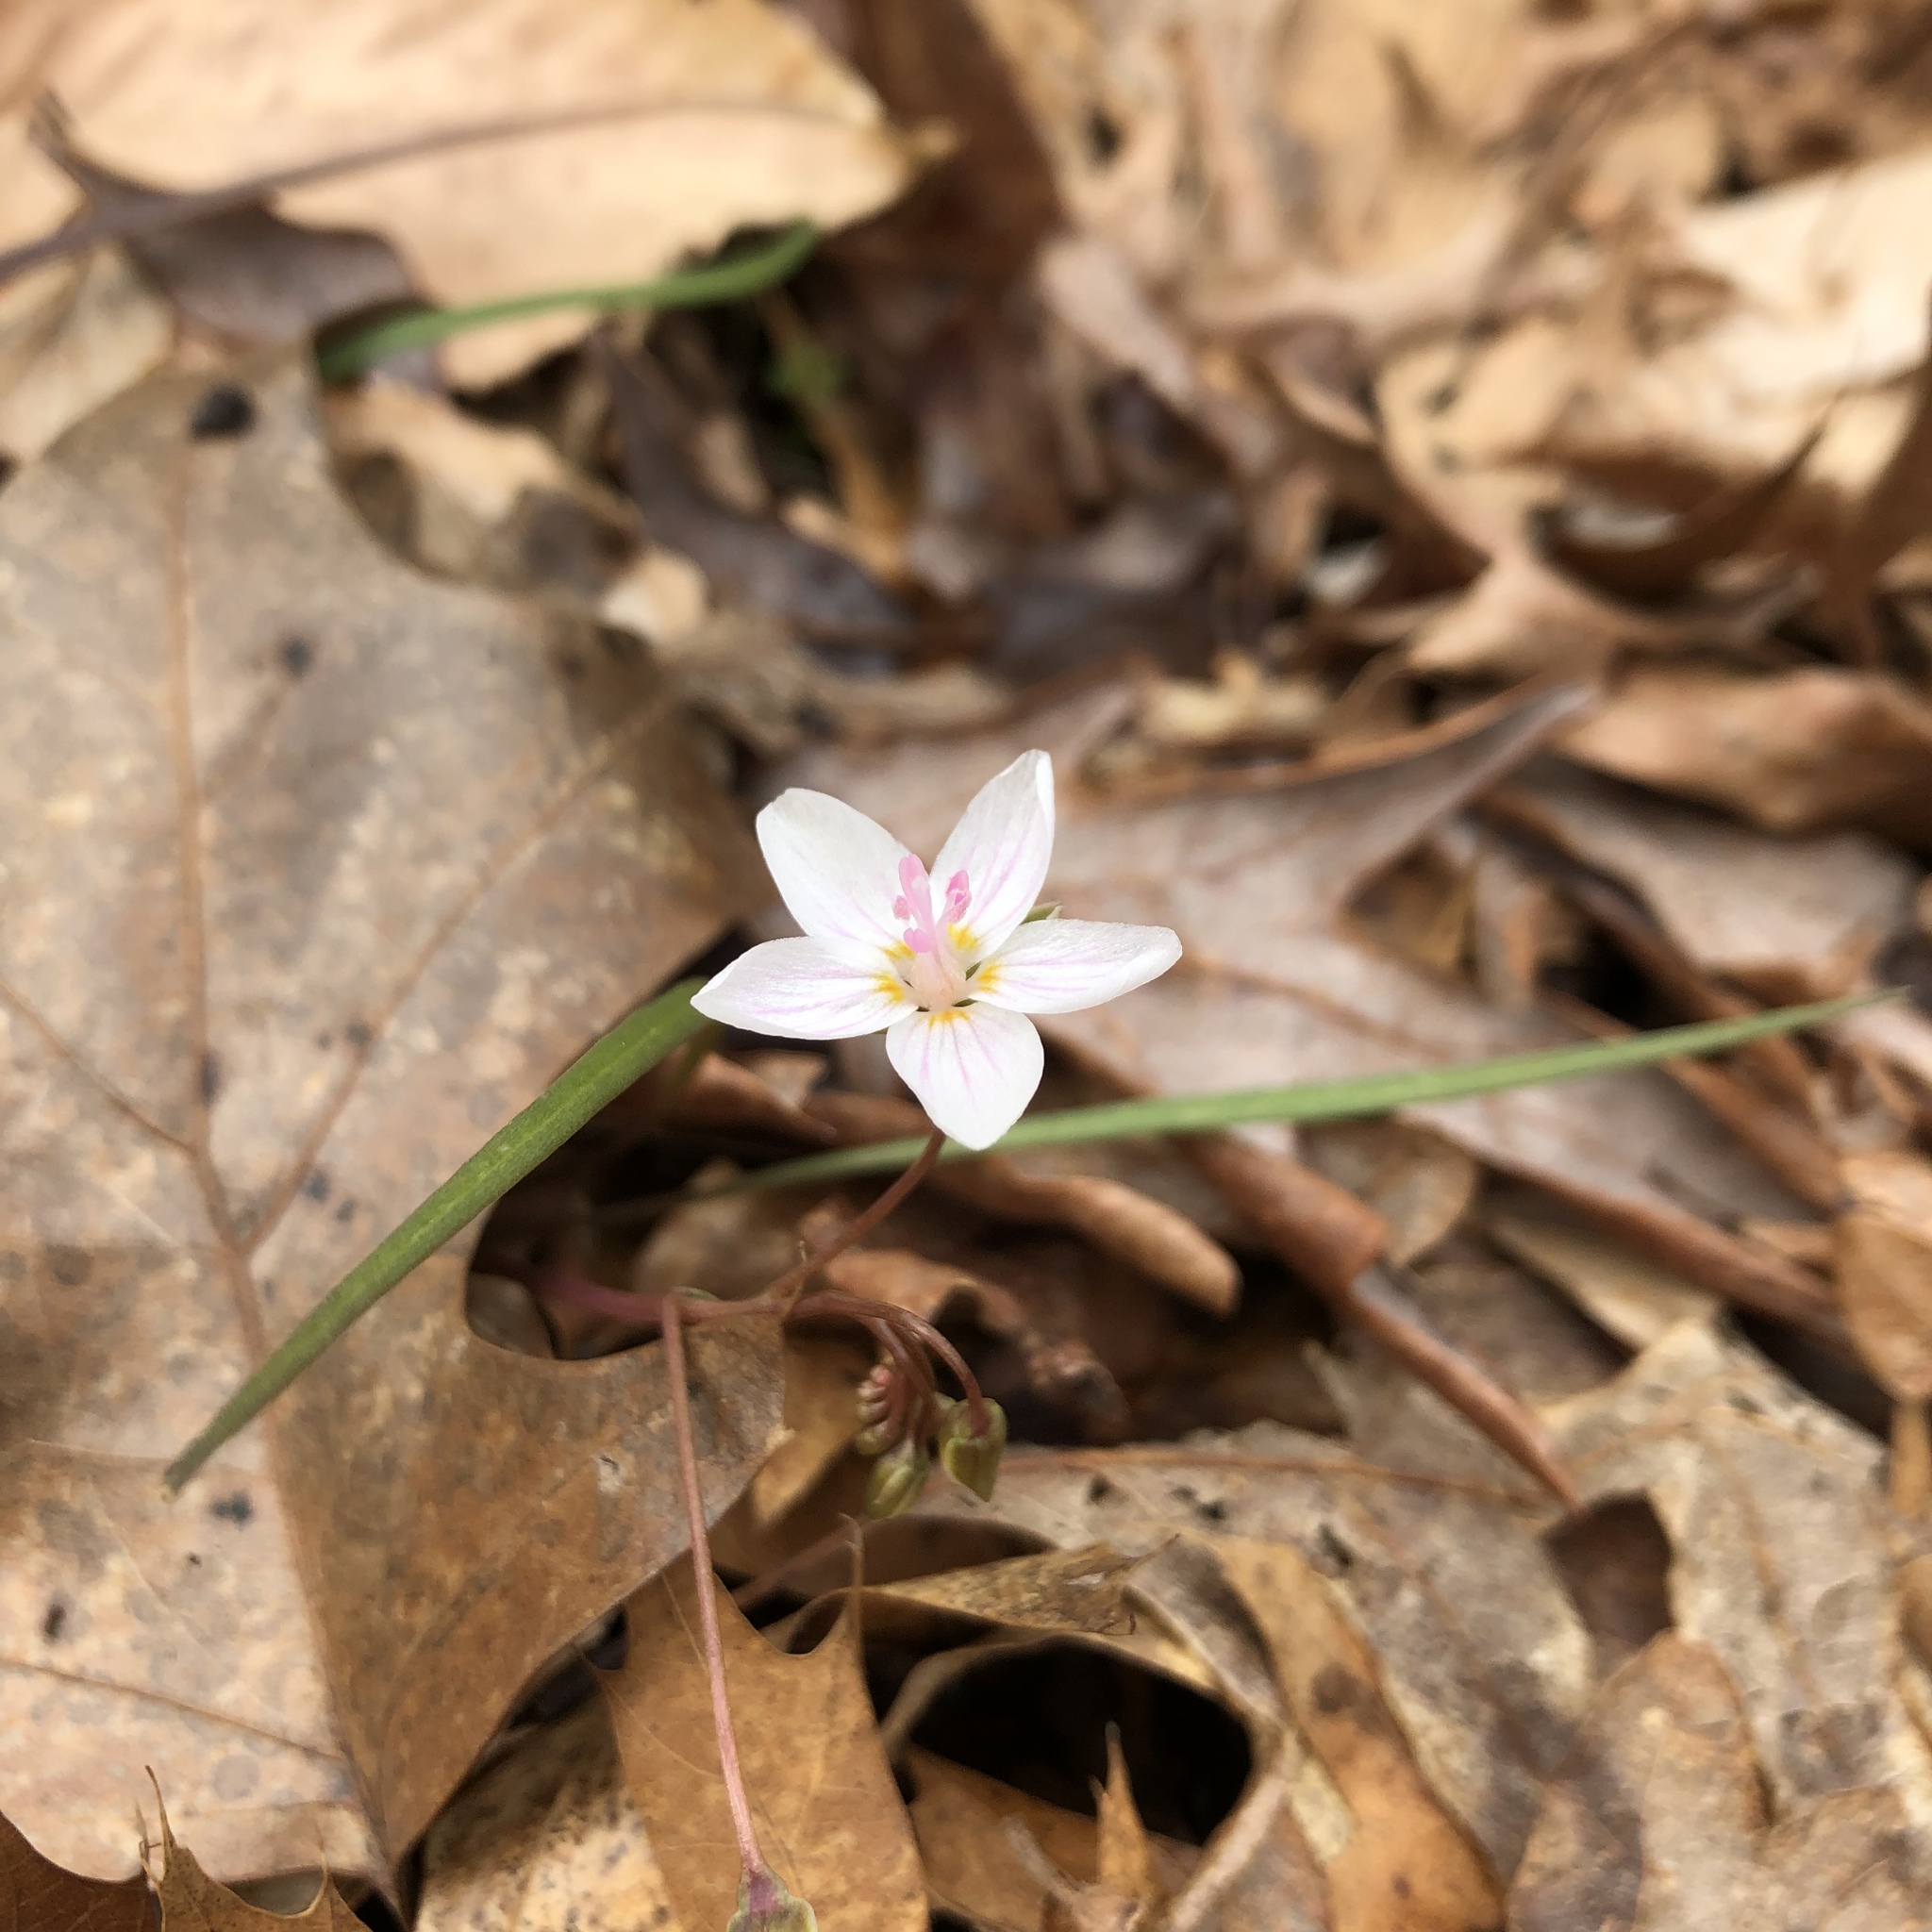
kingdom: Plantae
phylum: Tracheophyta
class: Magnoliopsida
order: Caryophyllales
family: Montiaceae
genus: Claytonia
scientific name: Claytonia virginica
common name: Virginia springbeauty
